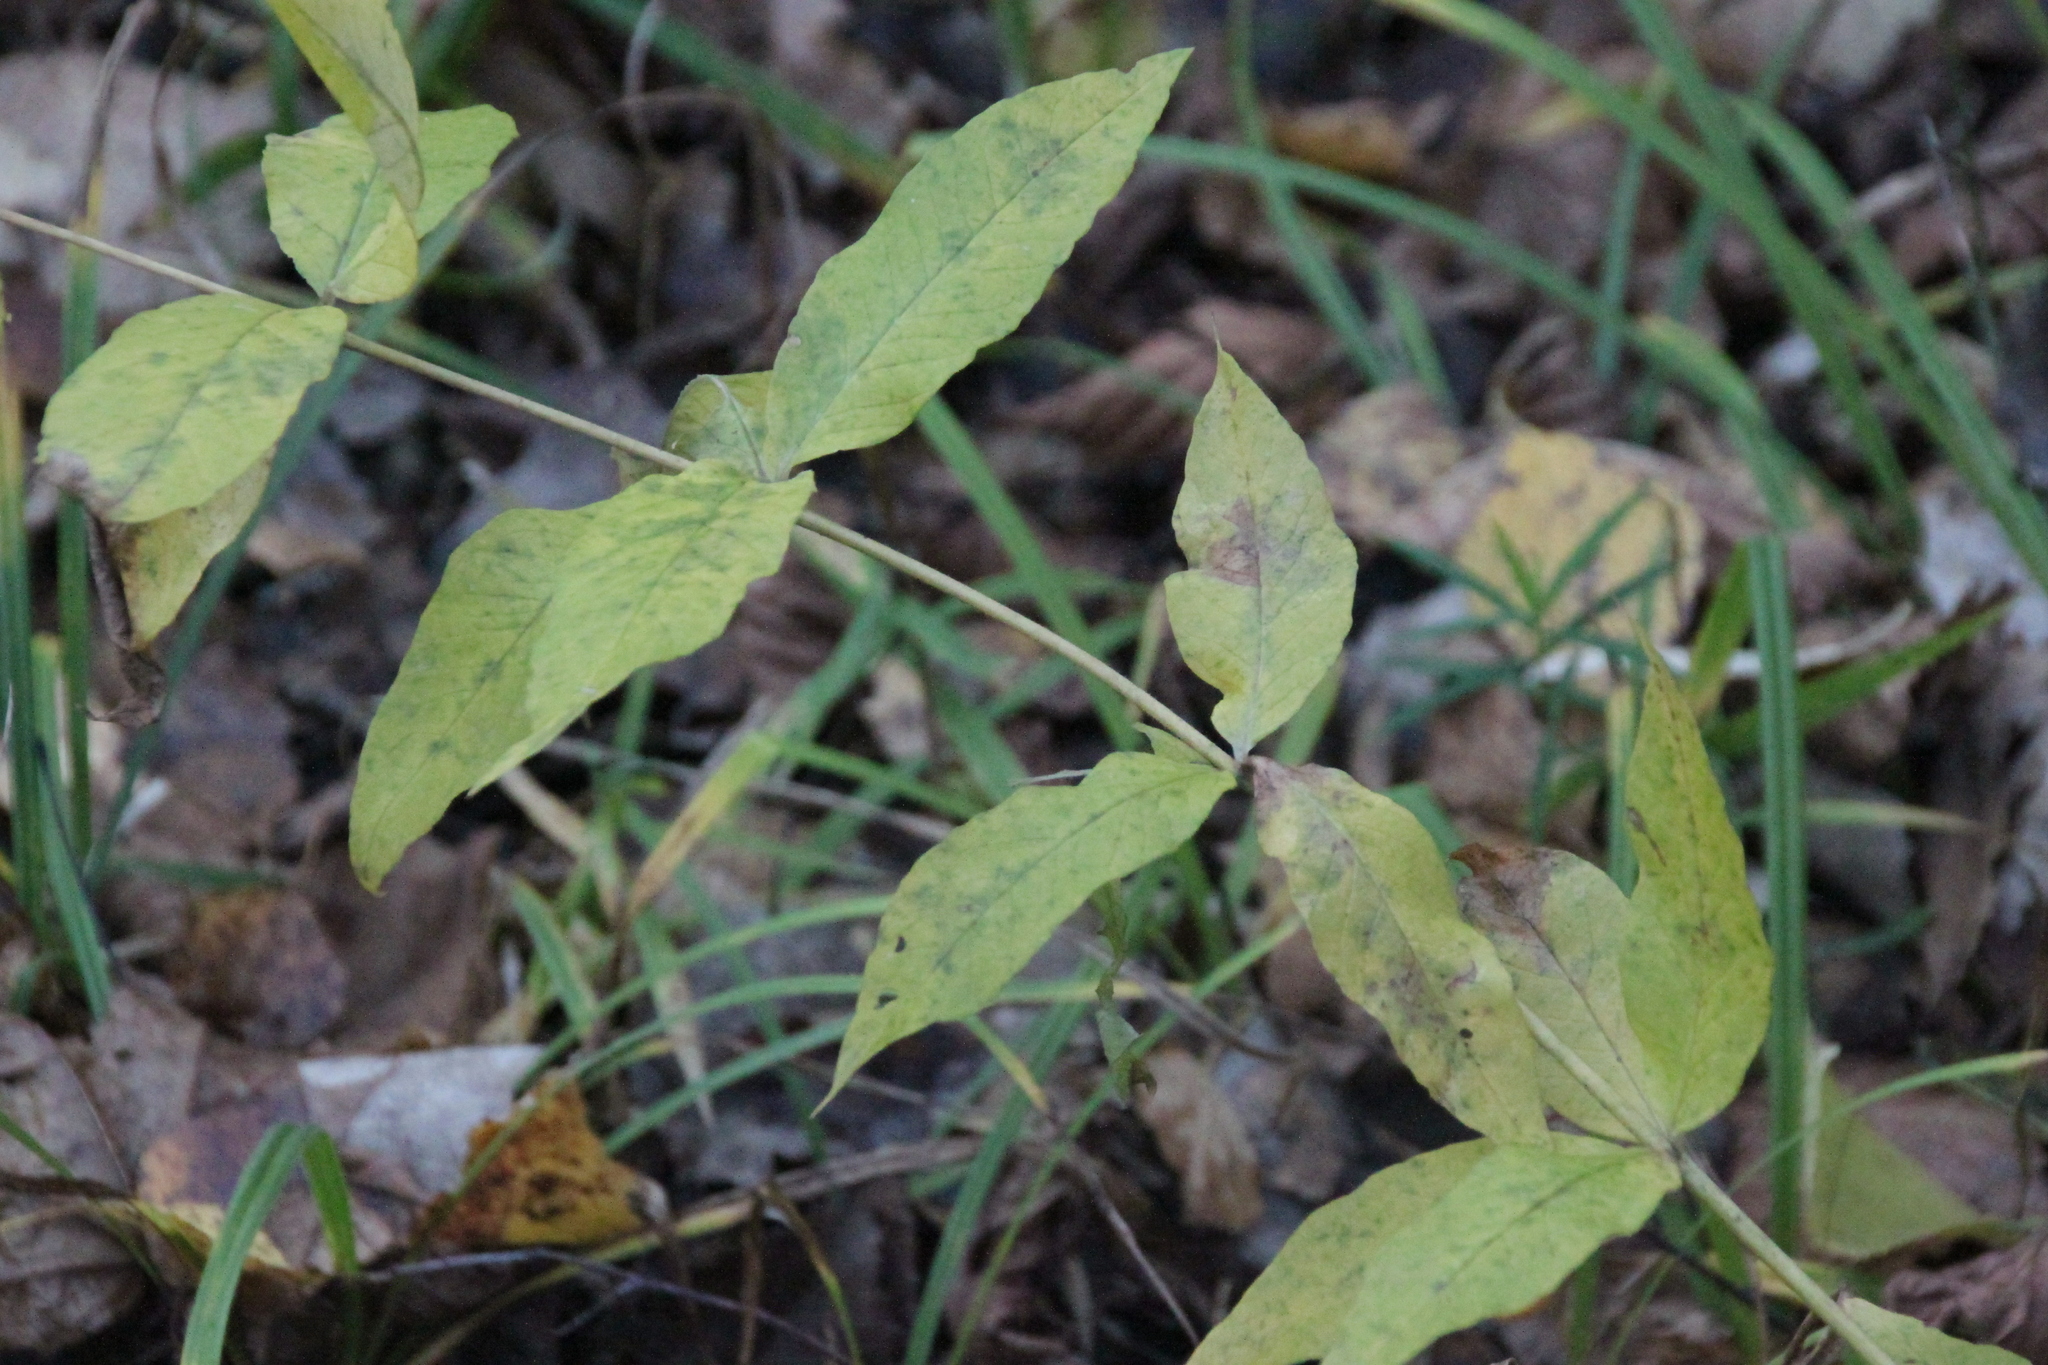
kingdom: Plantae
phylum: Tracheophyta
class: Magnoliopsida
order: Ericales
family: Primulaceae
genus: Lysimachia
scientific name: Lysimachia vulgaris
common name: Yellow loosestrife
